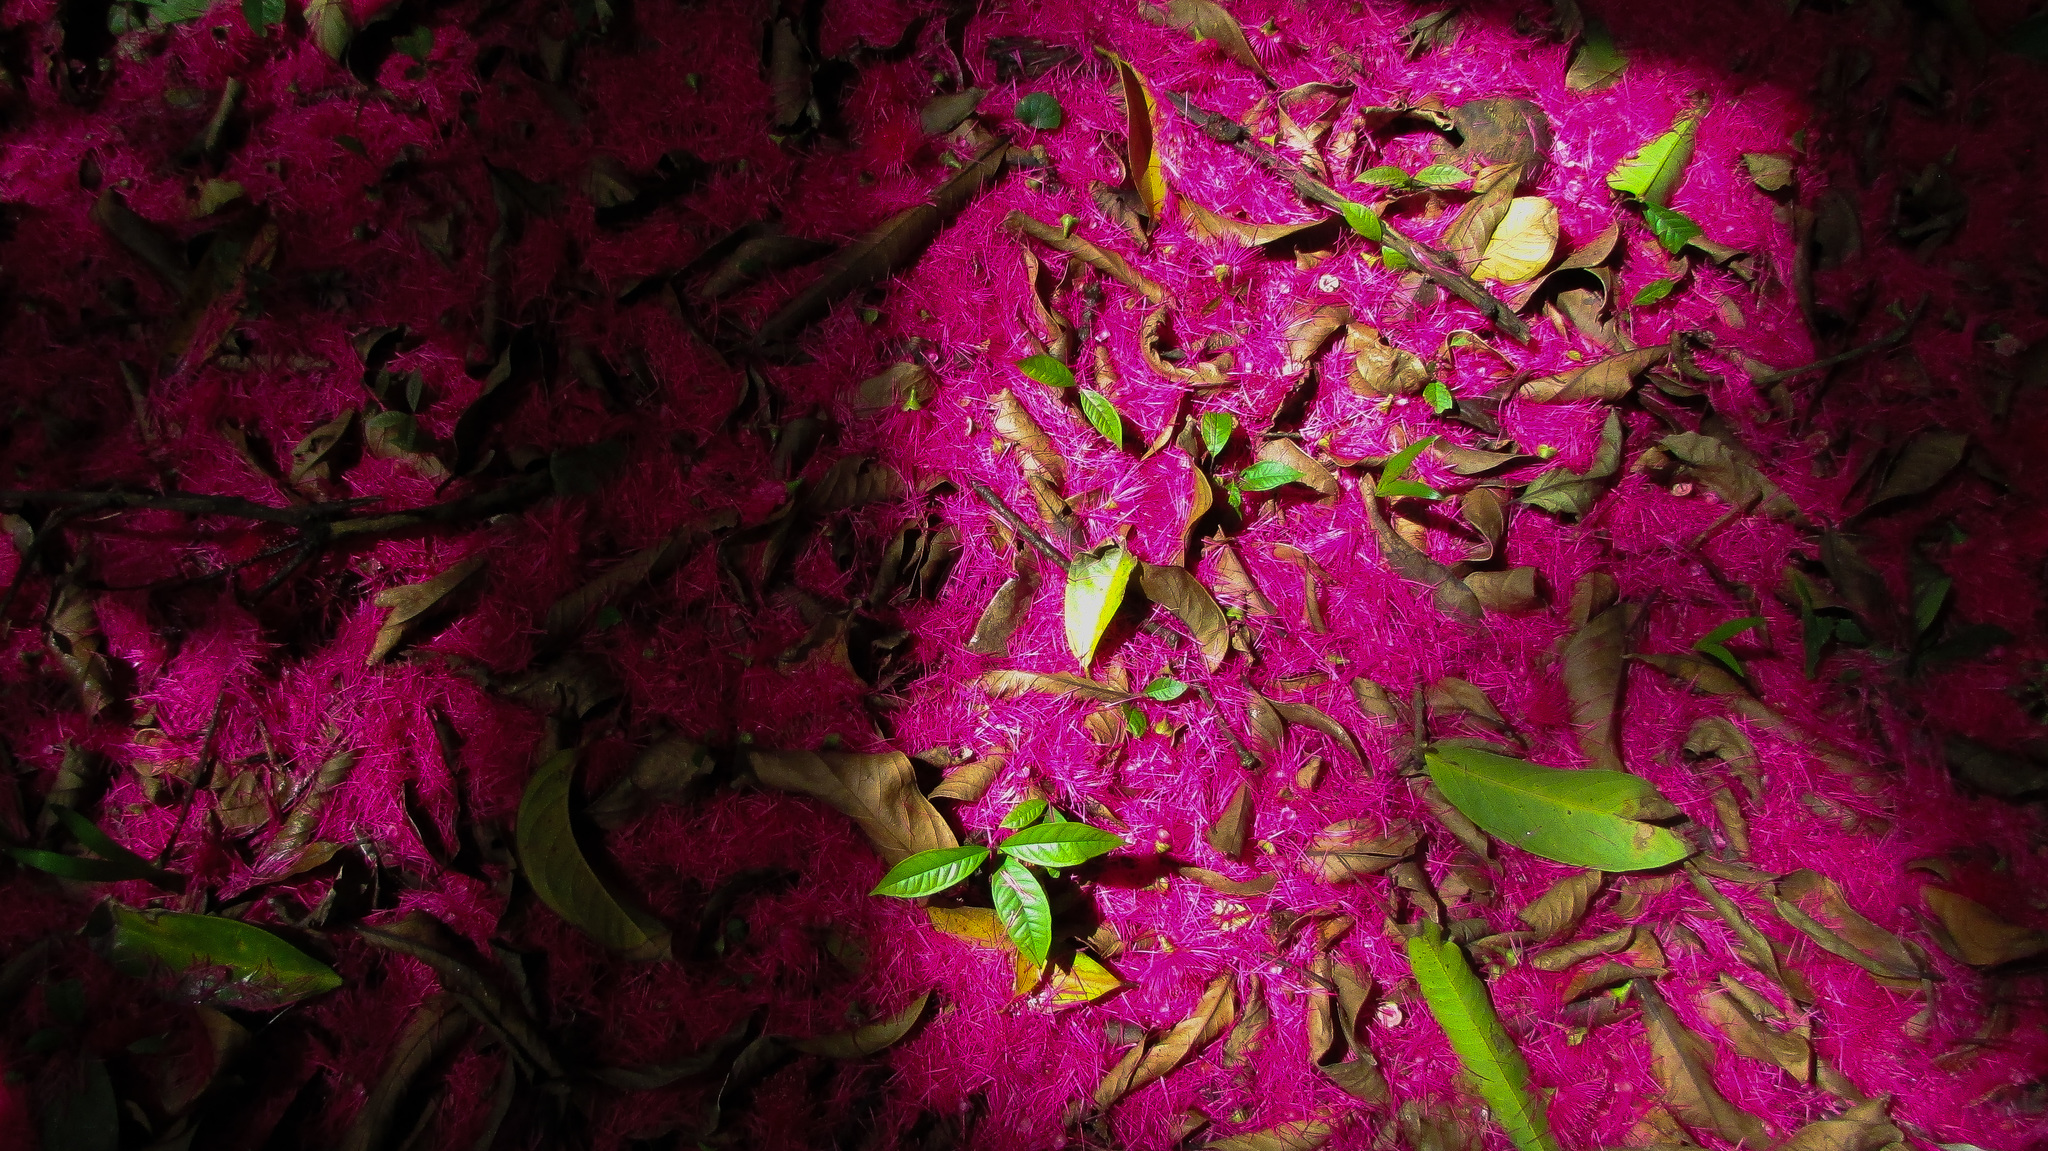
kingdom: Plantae
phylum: Tracheophyta
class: Magnoliopsida
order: Myrtales
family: Myrtaceae
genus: Syzygium
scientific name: Syzygium malaccense
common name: Malaysian apple
